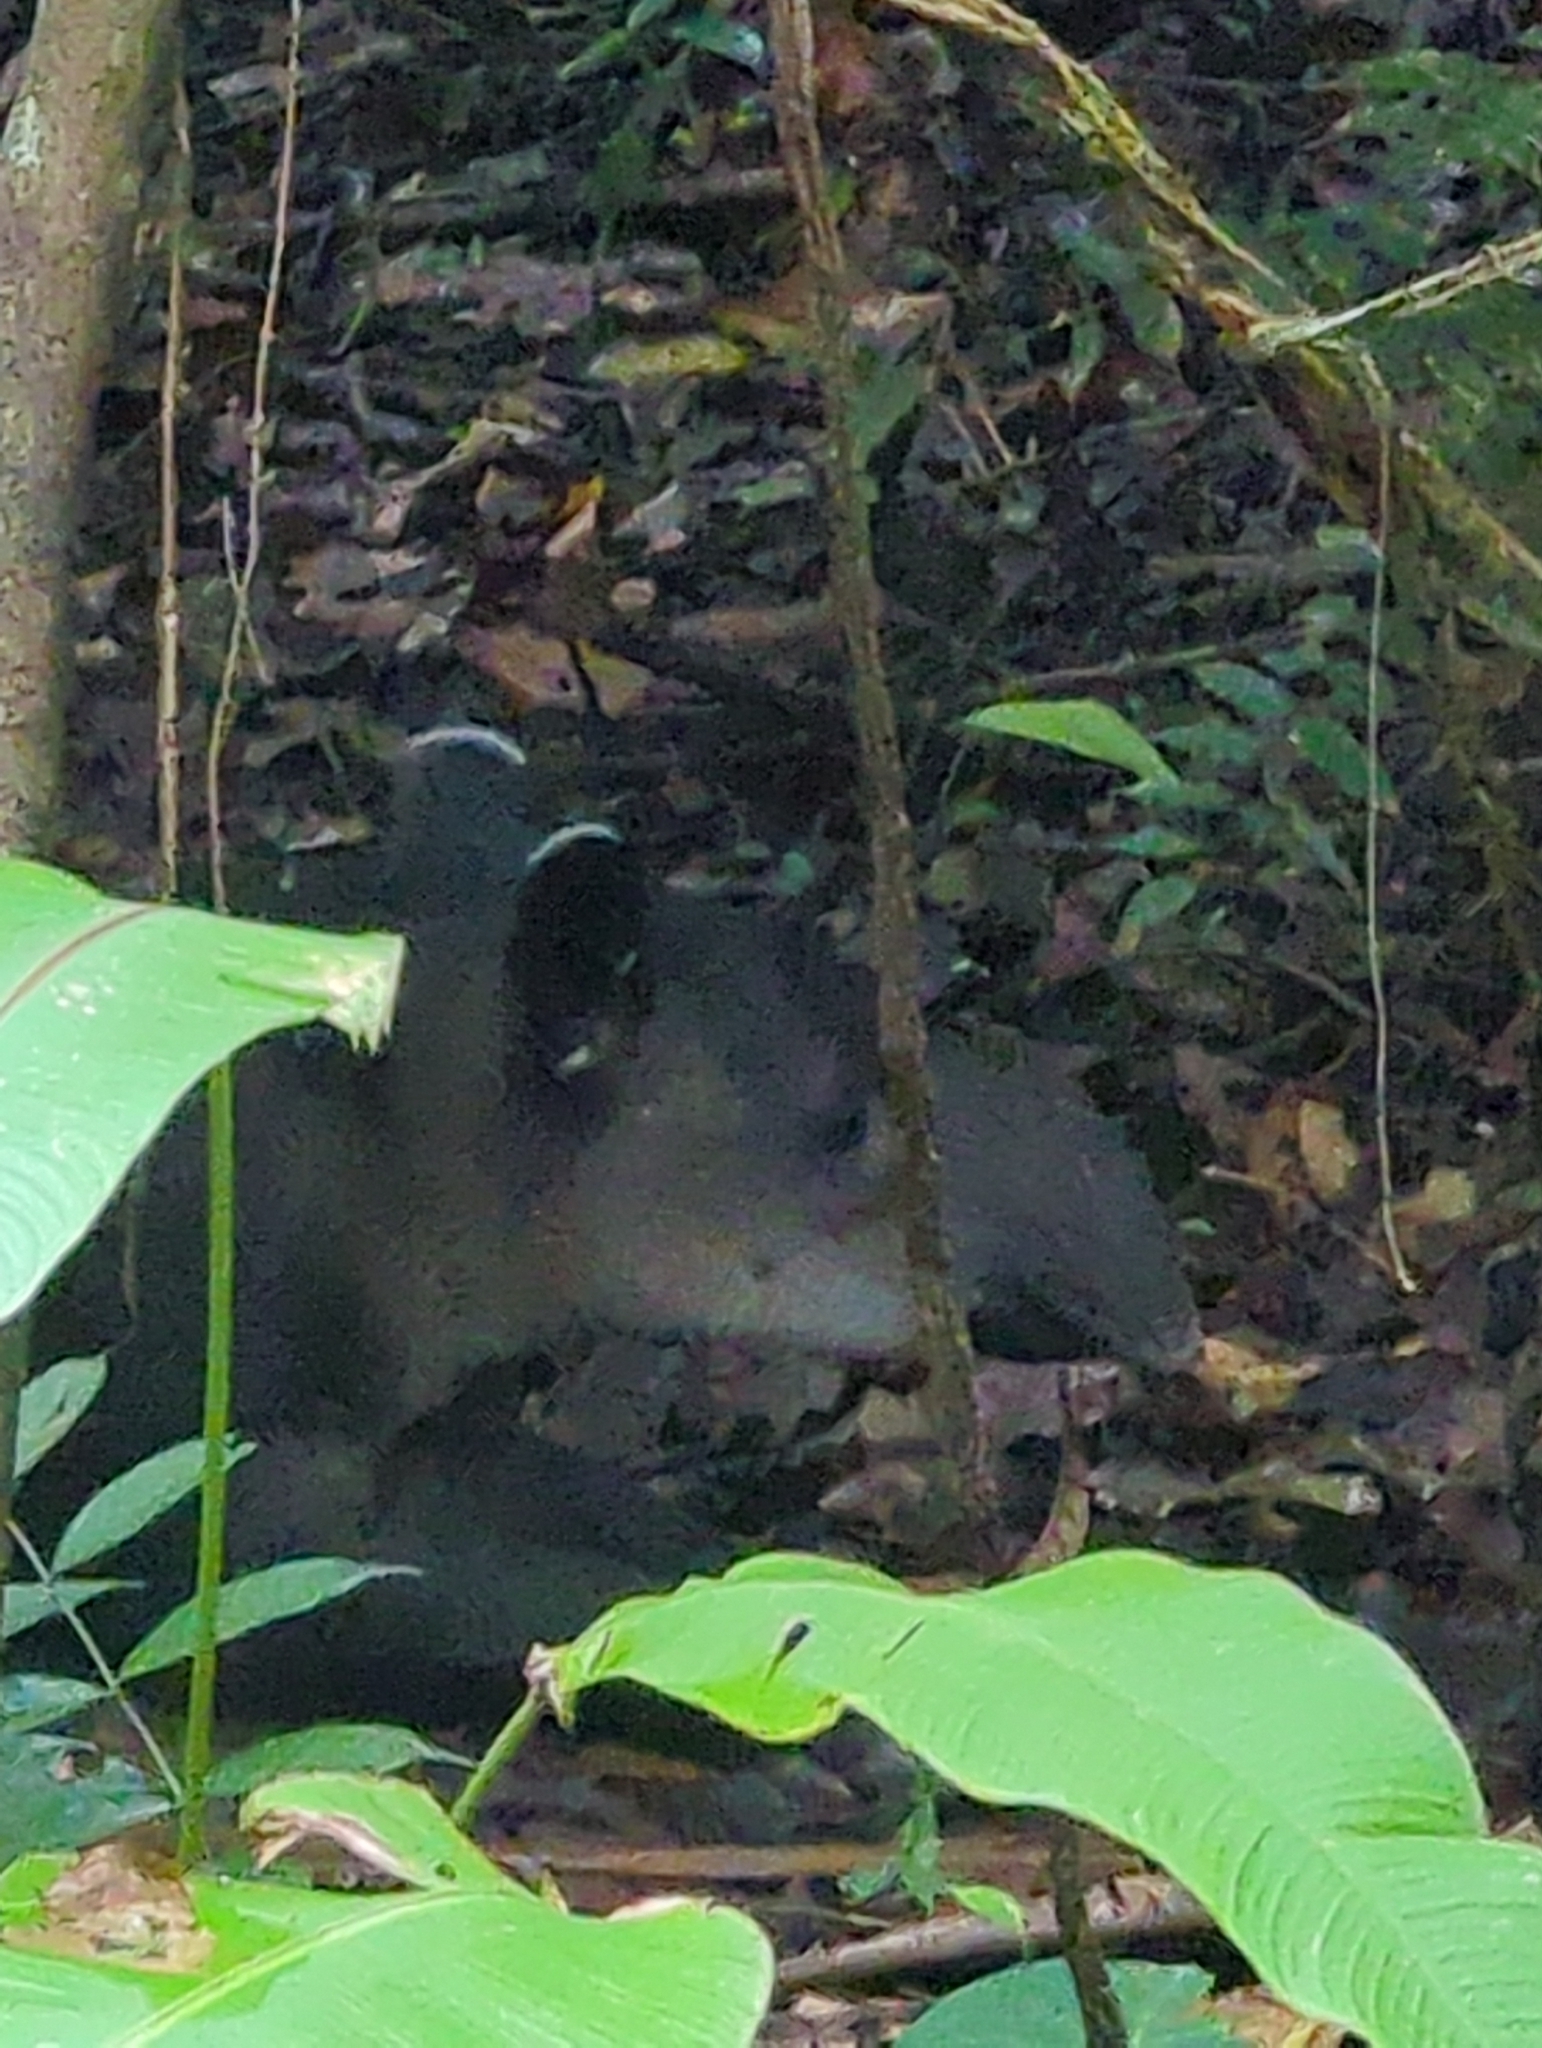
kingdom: Animalia
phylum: Chordata
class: Mammalia
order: Perissodactyla
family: Tapiridae
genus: Tapirella
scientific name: Tapirella bairdii
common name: Baird's tapir
